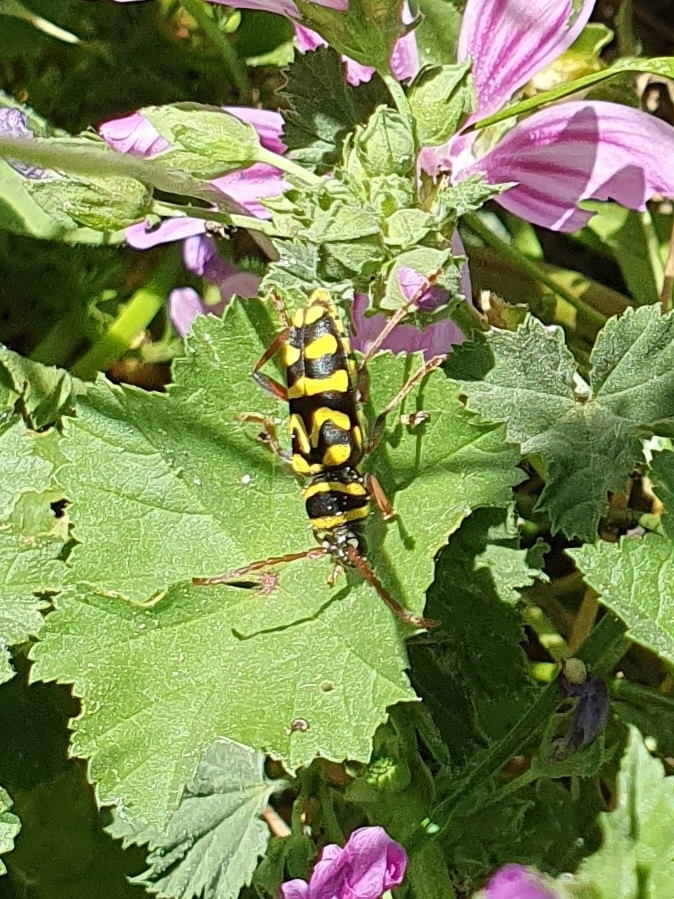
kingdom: Animalia
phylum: Arthropoda
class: Insecta
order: Coleoptera
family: Cerambycidae
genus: Neoplagionotus
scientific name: Neoplagionotus scalaris
